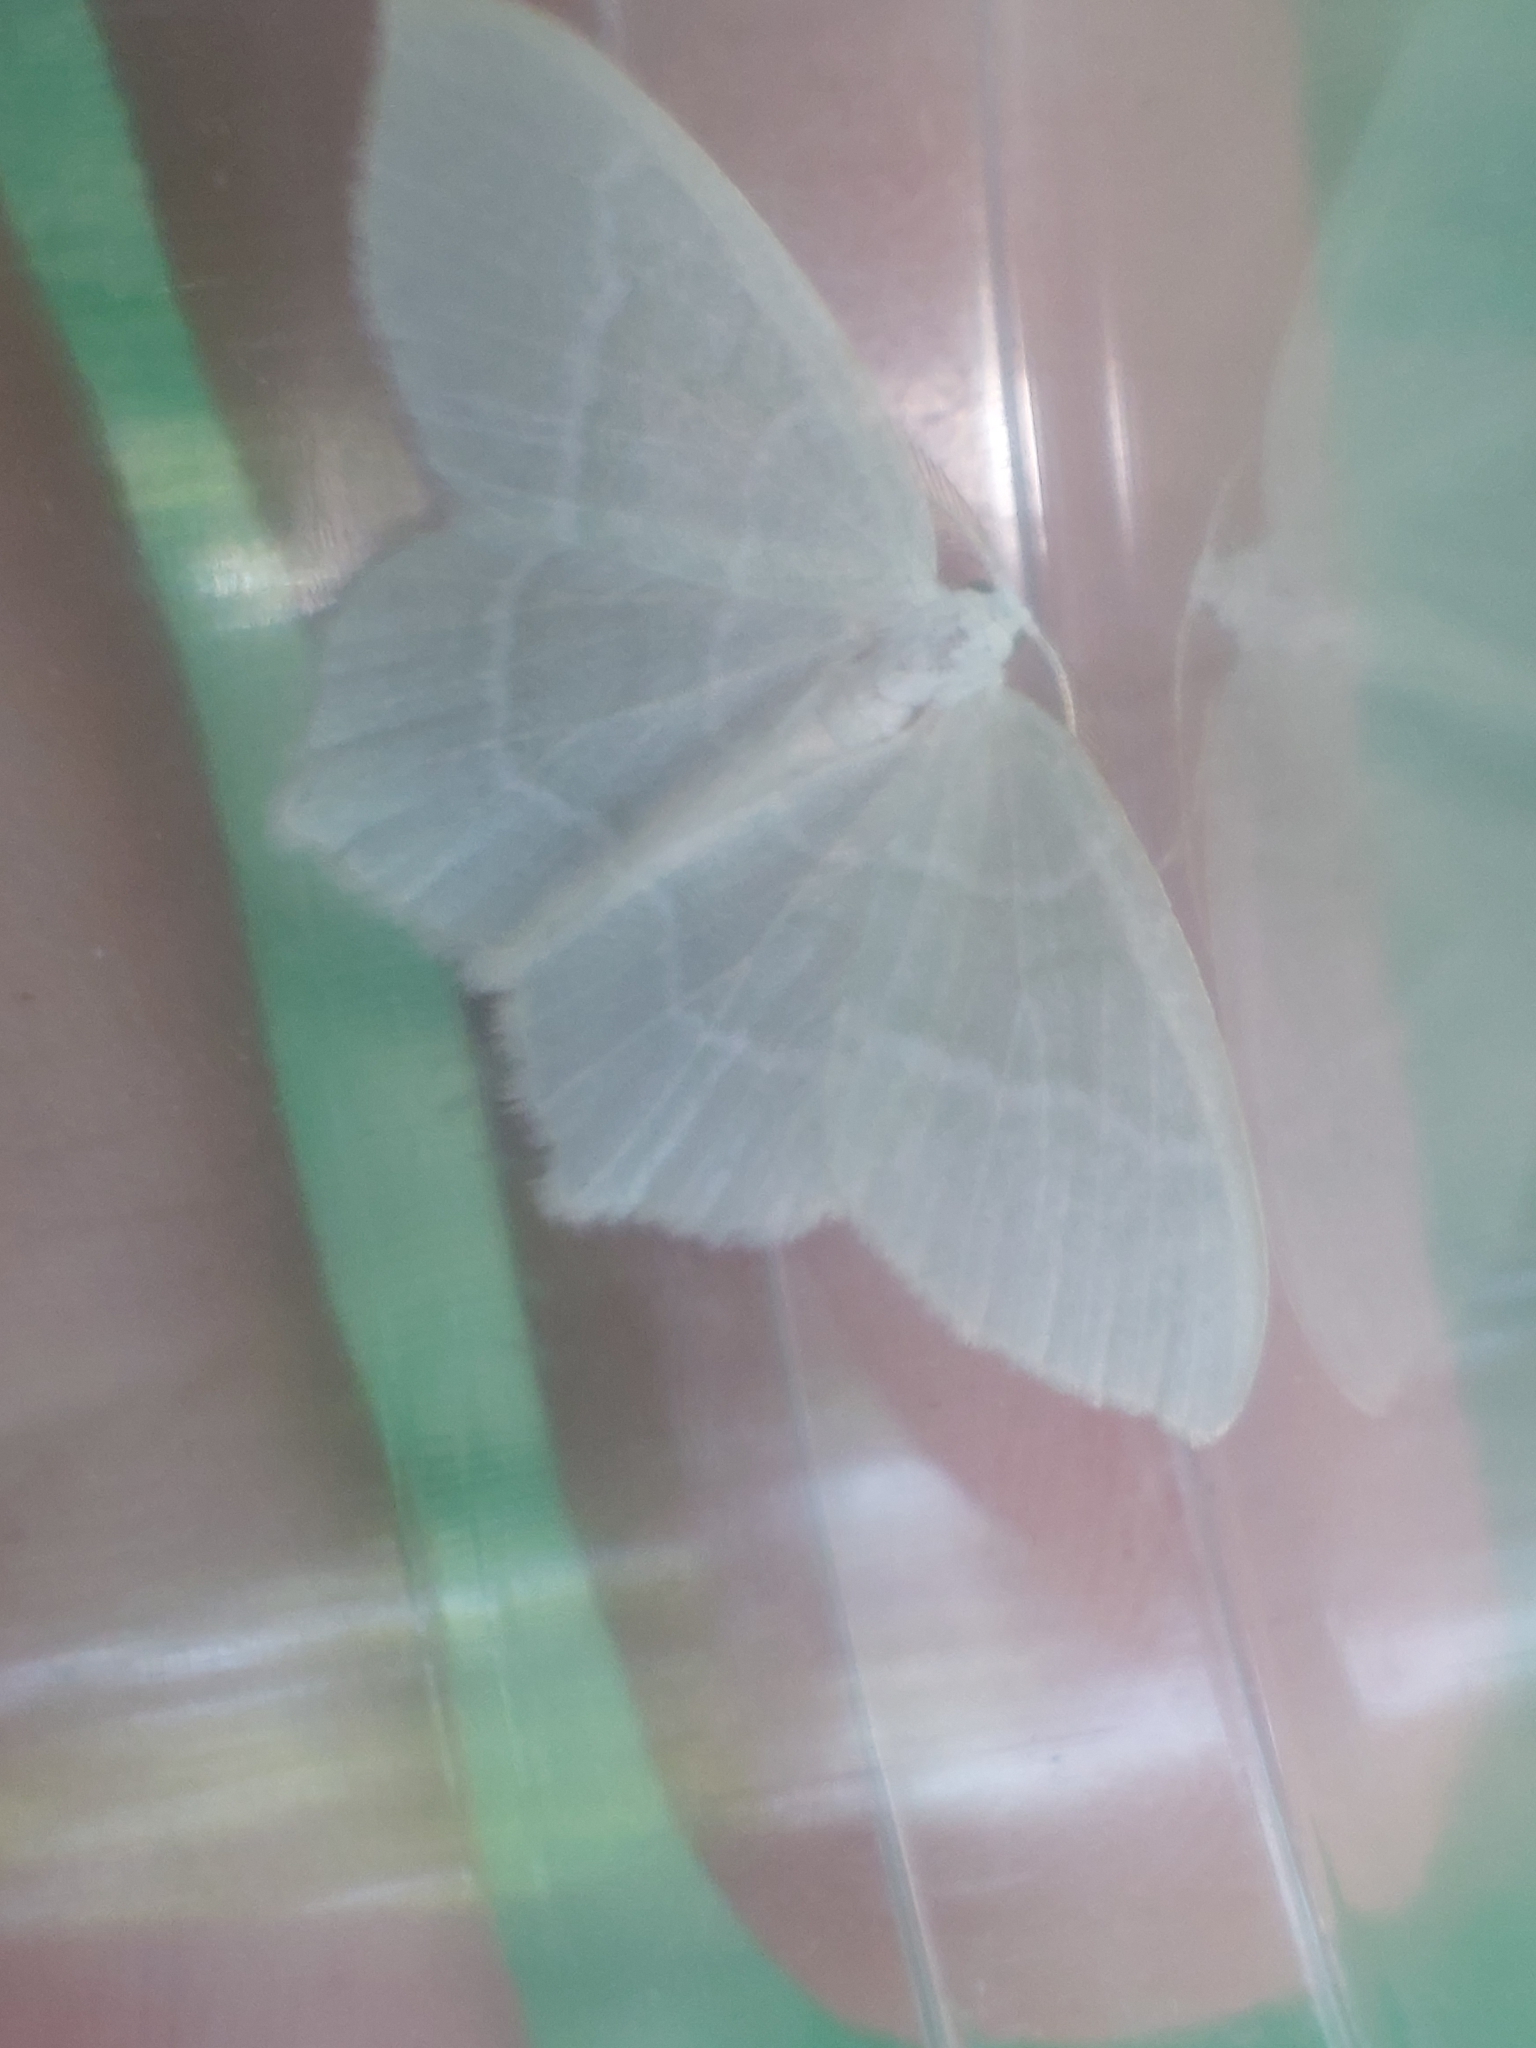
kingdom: Animalia
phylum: Arthropoda
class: Insecta
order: Lepidoptera
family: Geometridae
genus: Jodis
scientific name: Jodis lactearia
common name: Little emerald
